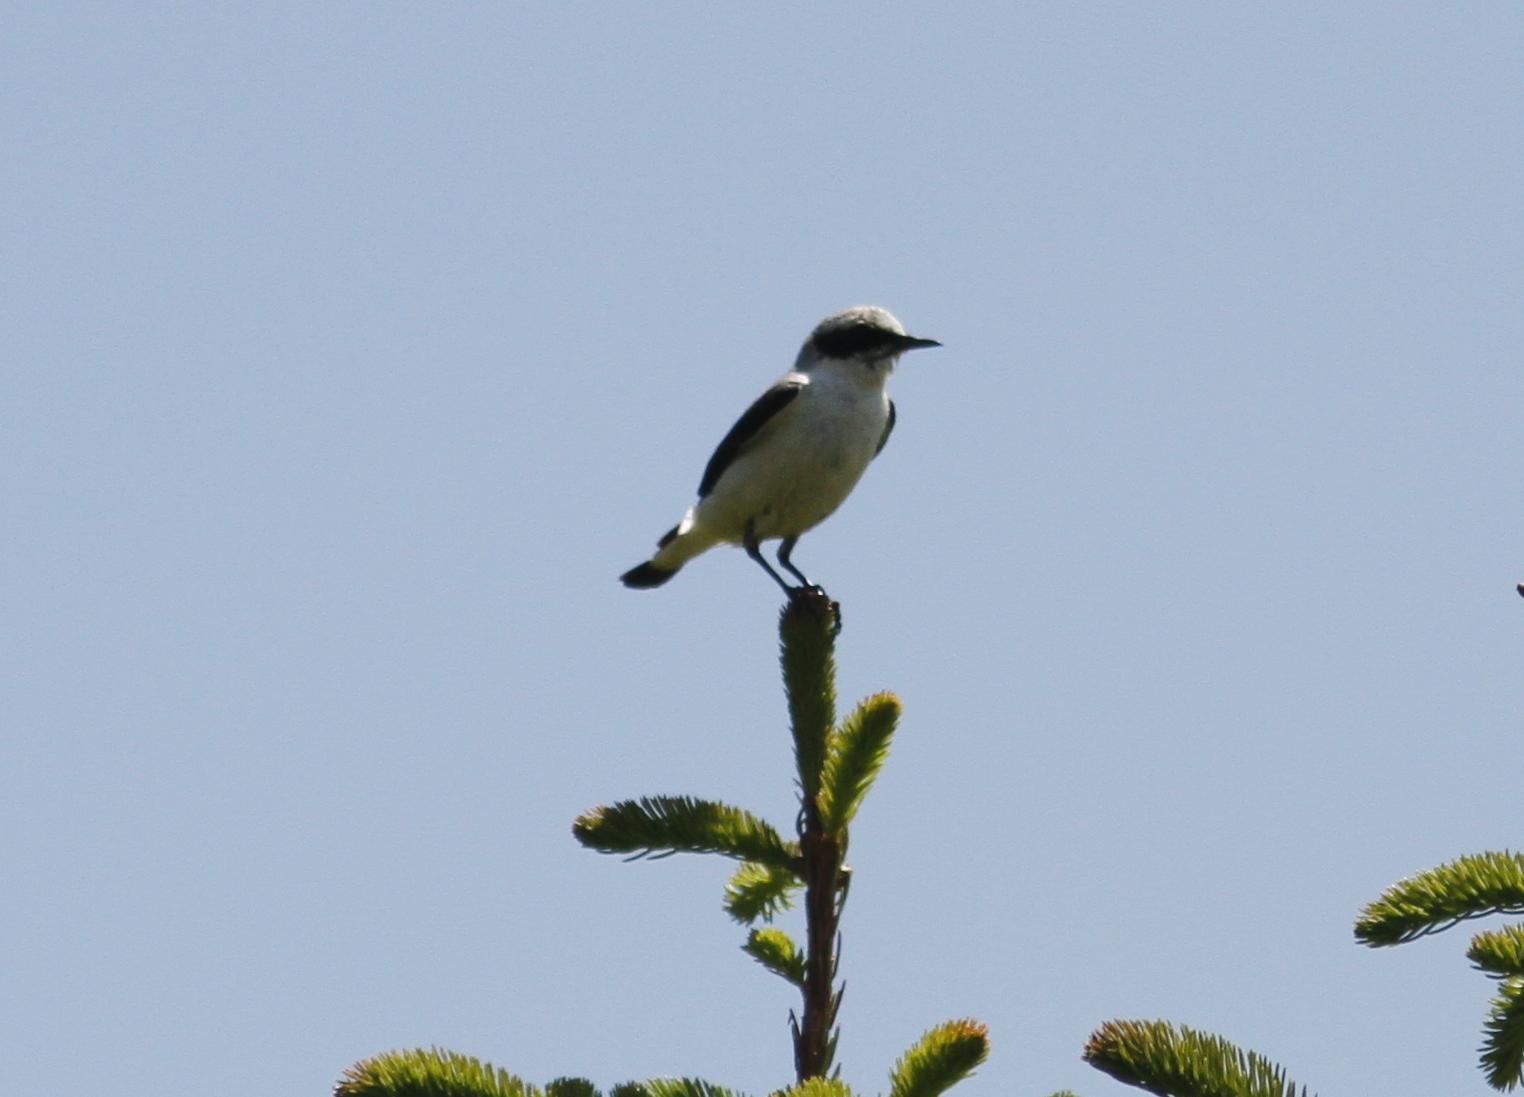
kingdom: Animalia
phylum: Chordata
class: Aves
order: Passeriformes
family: Muscicapidae
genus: Oenanthe
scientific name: Oenanthe oenanthe
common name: Northern wheatear
